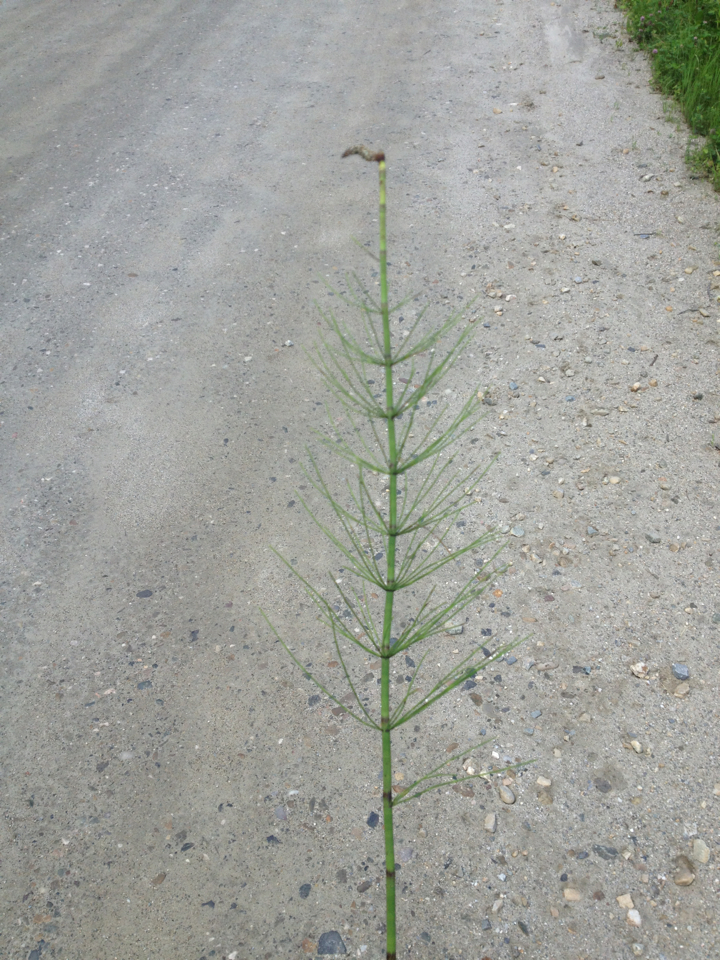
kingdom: Plantae
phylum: Tracheophyta
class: Polypodiopsida
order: Equisetales
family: Equisetaceae
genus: Equisetum
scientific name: Equisetum fluviatile
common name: Water horsetail
